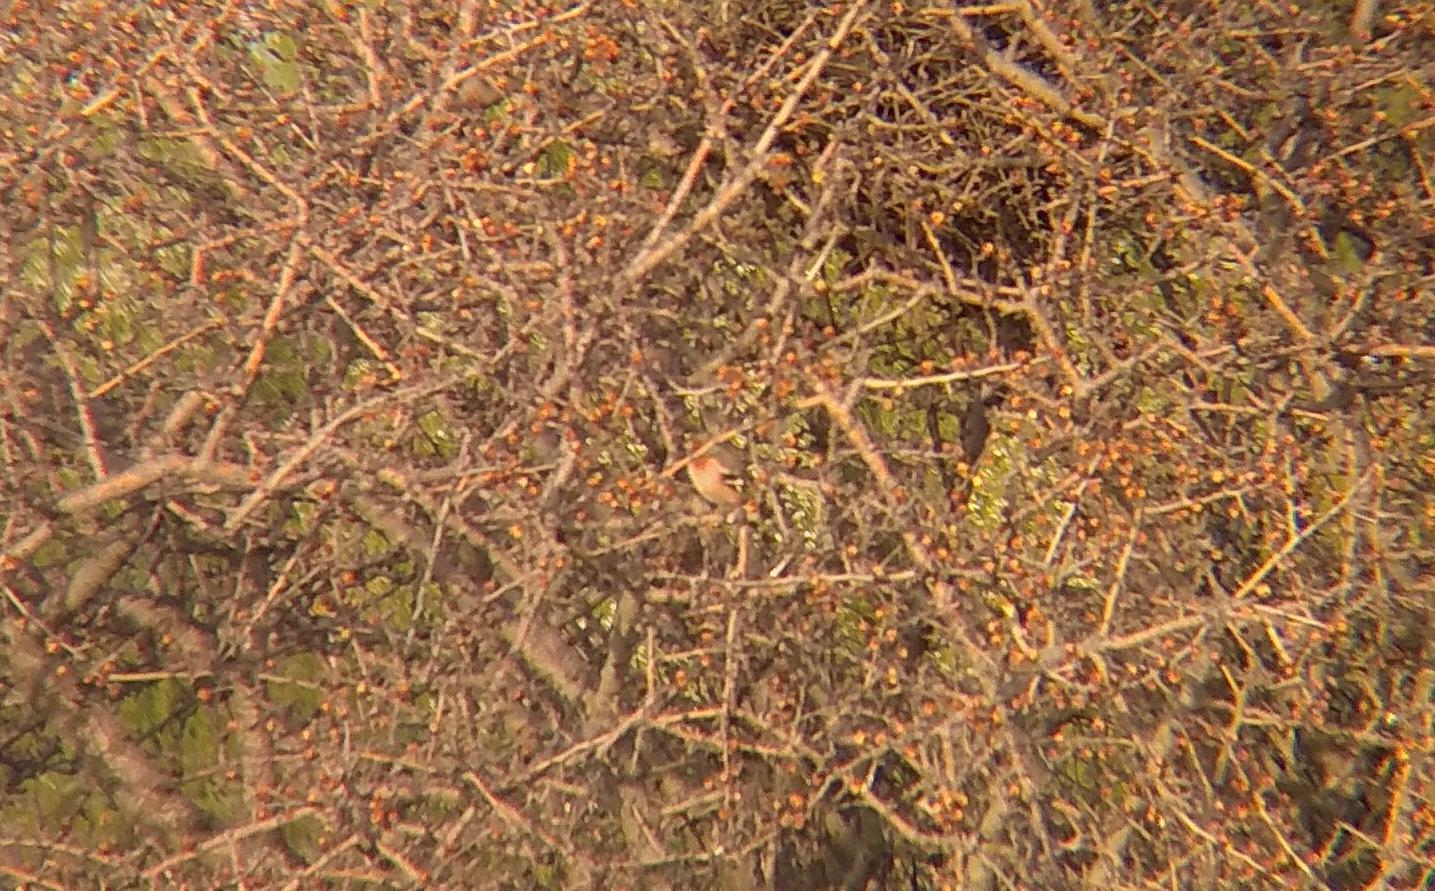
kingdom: Animalia
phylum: Chordata
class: Aves
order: Passeriformes
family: Fringillidae
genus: Fringilla
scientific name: Fringilla coelebs
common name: Common chaffinch
